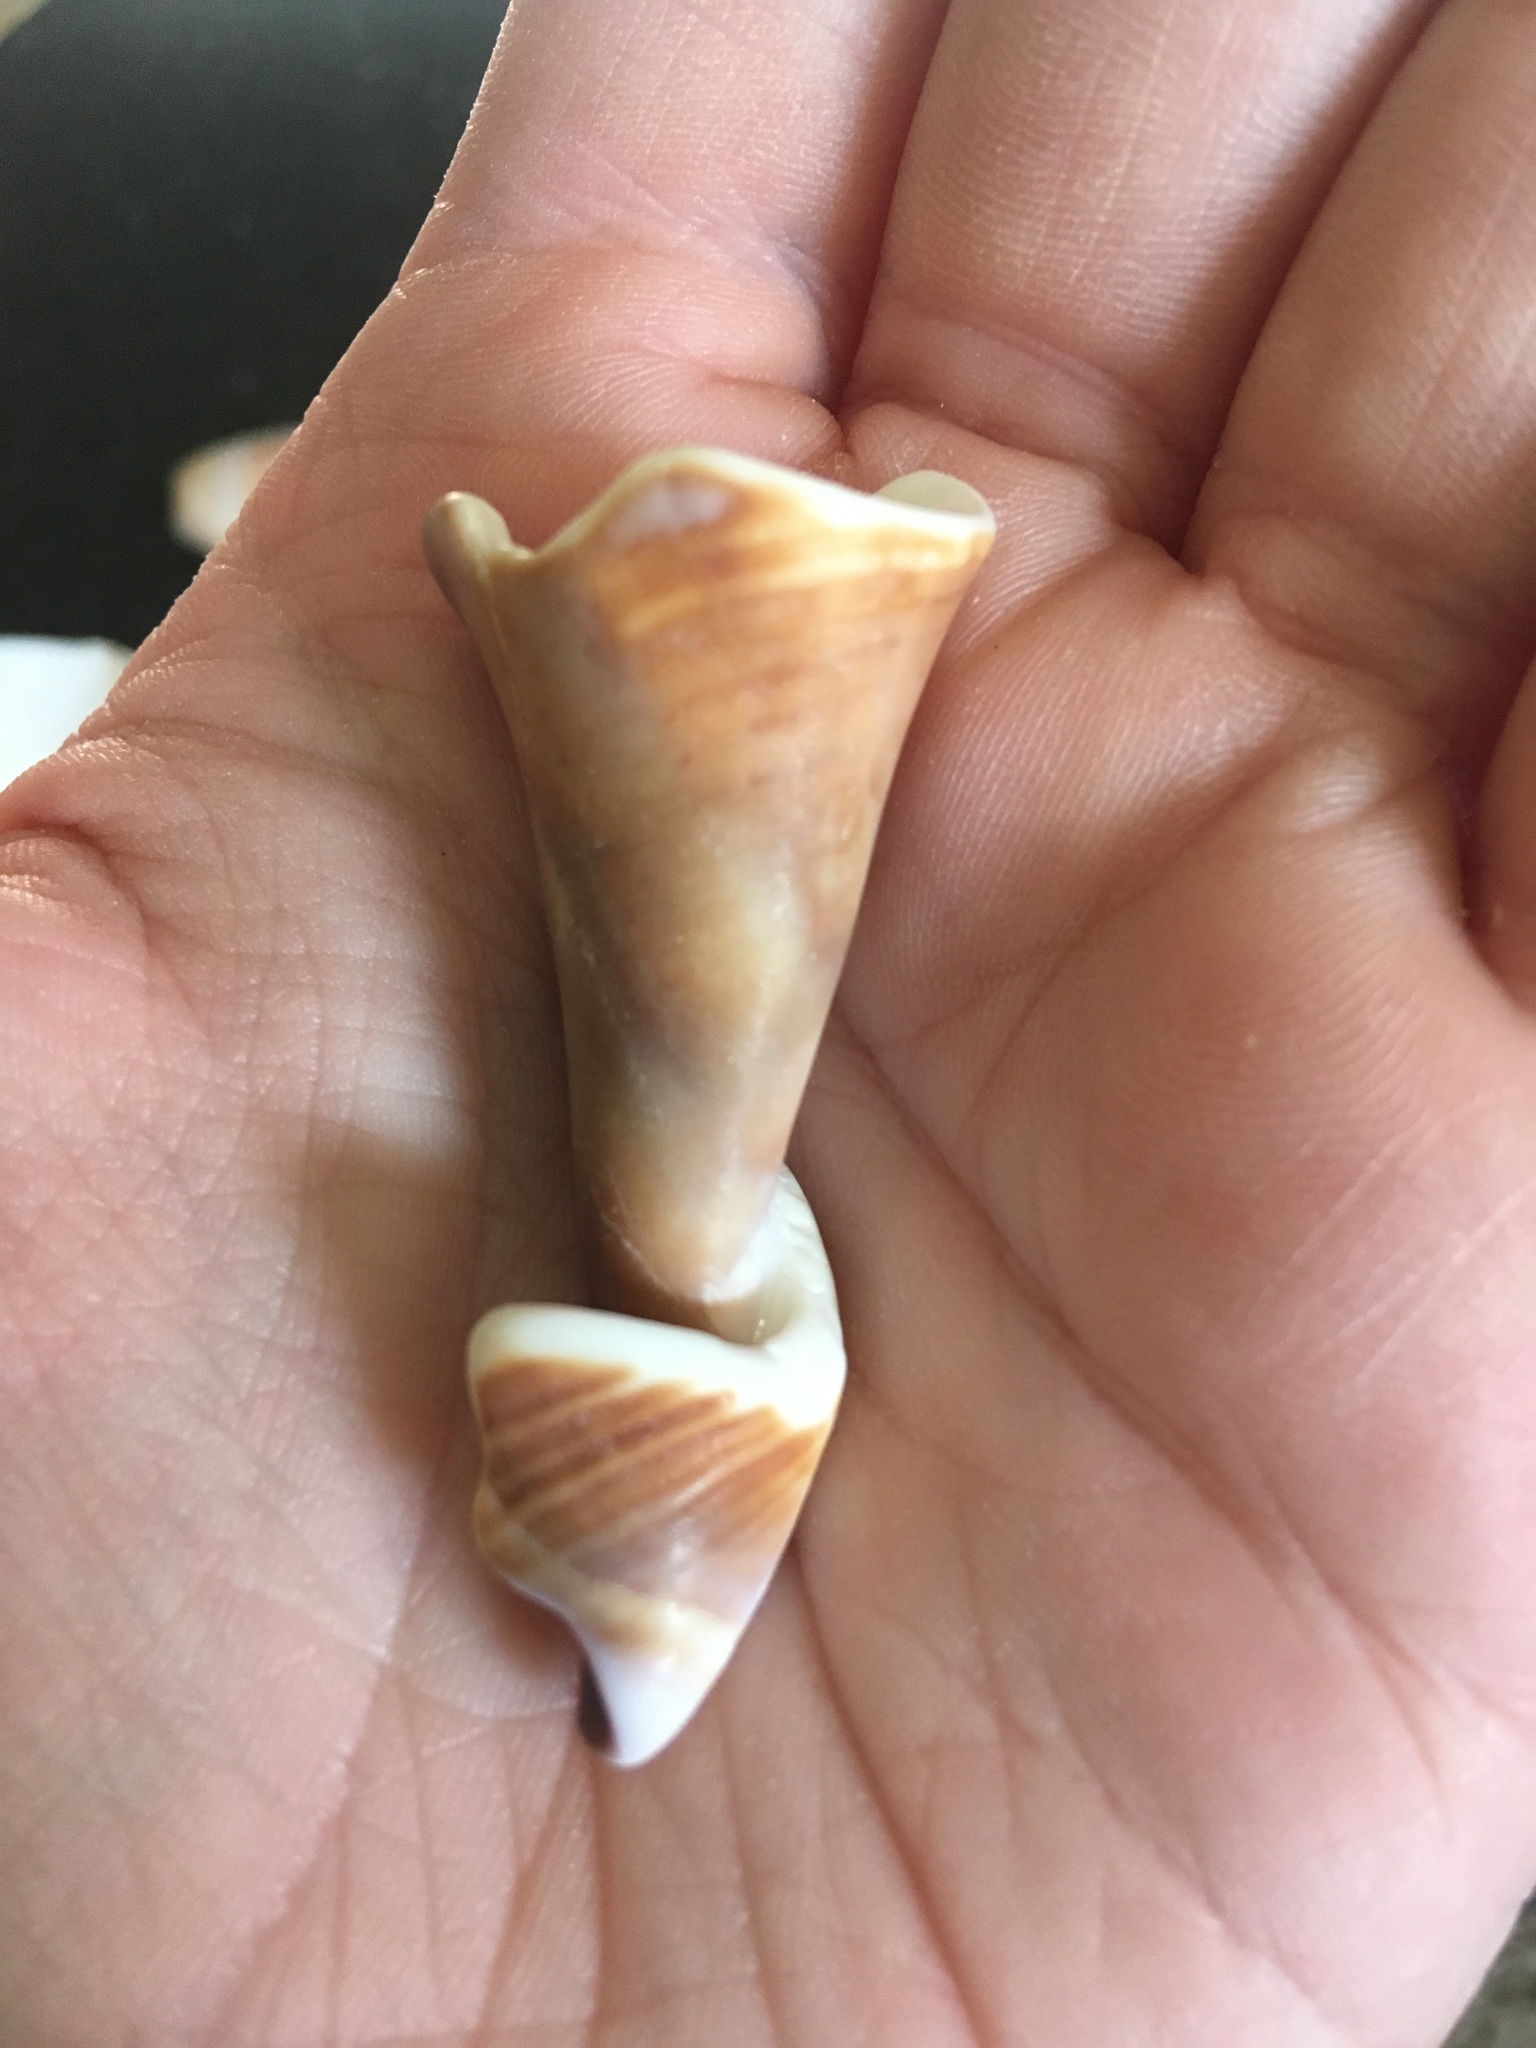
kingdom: Animalia
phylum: Mollusca
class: Gastropoda
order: Littorinimorpha
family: Strombidae
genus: Strombus
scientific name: Strombus alatus
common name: Florida fighting conch
